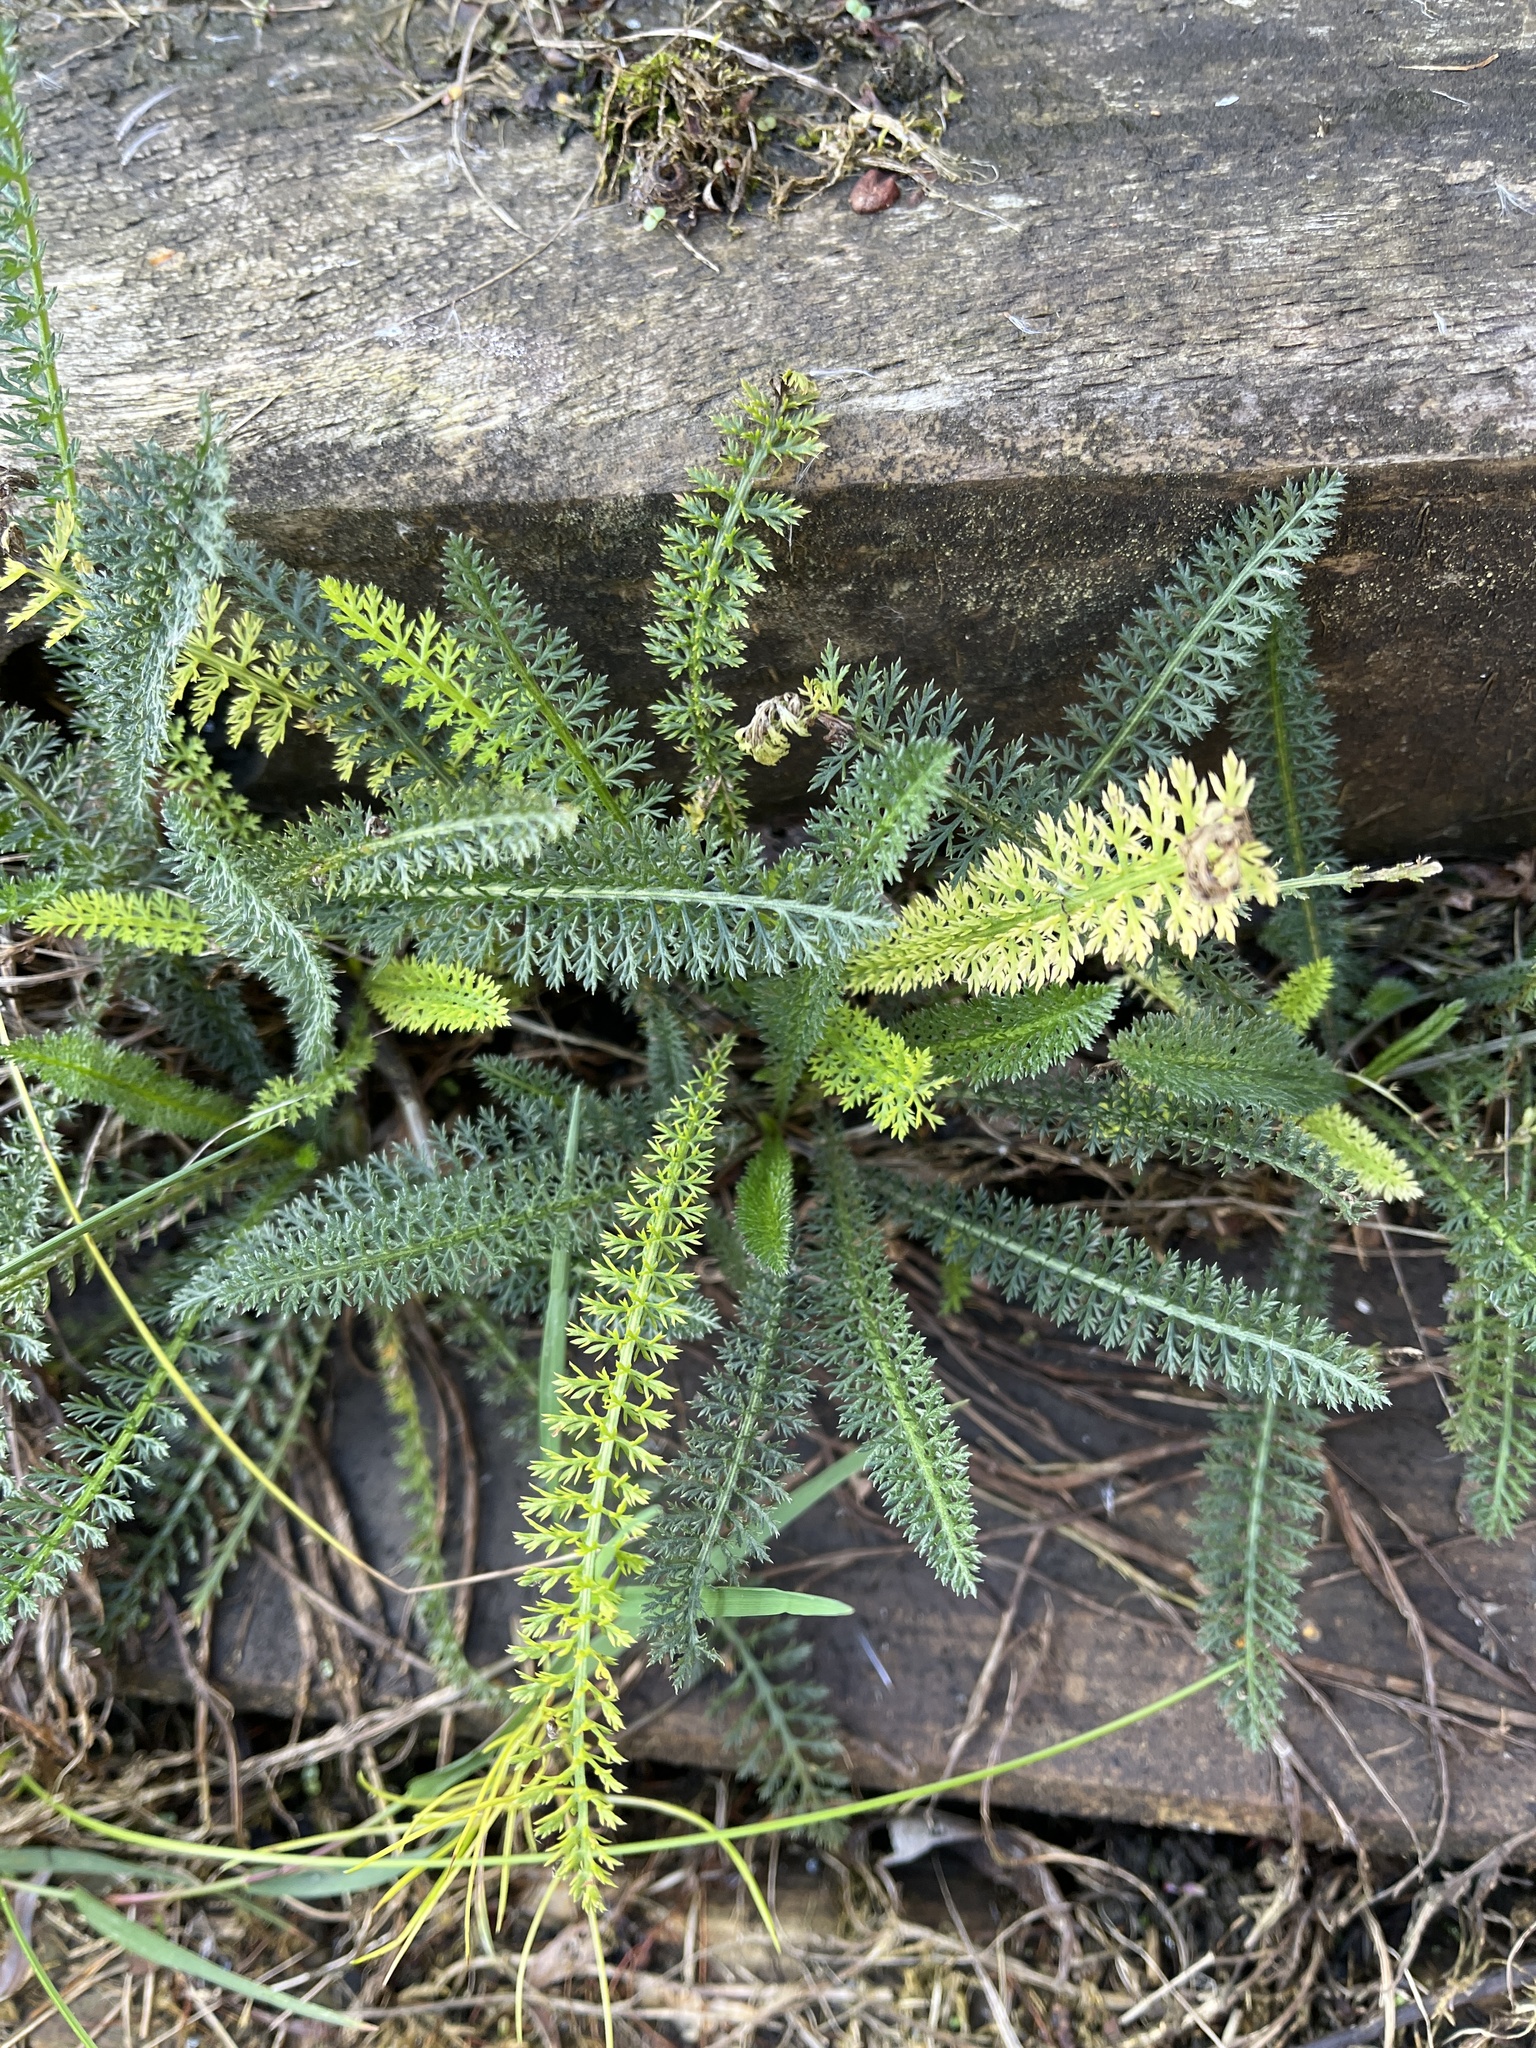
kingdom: Plantae
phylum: Tracheophyta
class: Magnoliopsida
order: Asterales
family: Asteraceae
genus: Achillea
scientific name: Achillea millefolium
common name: Yarrow
